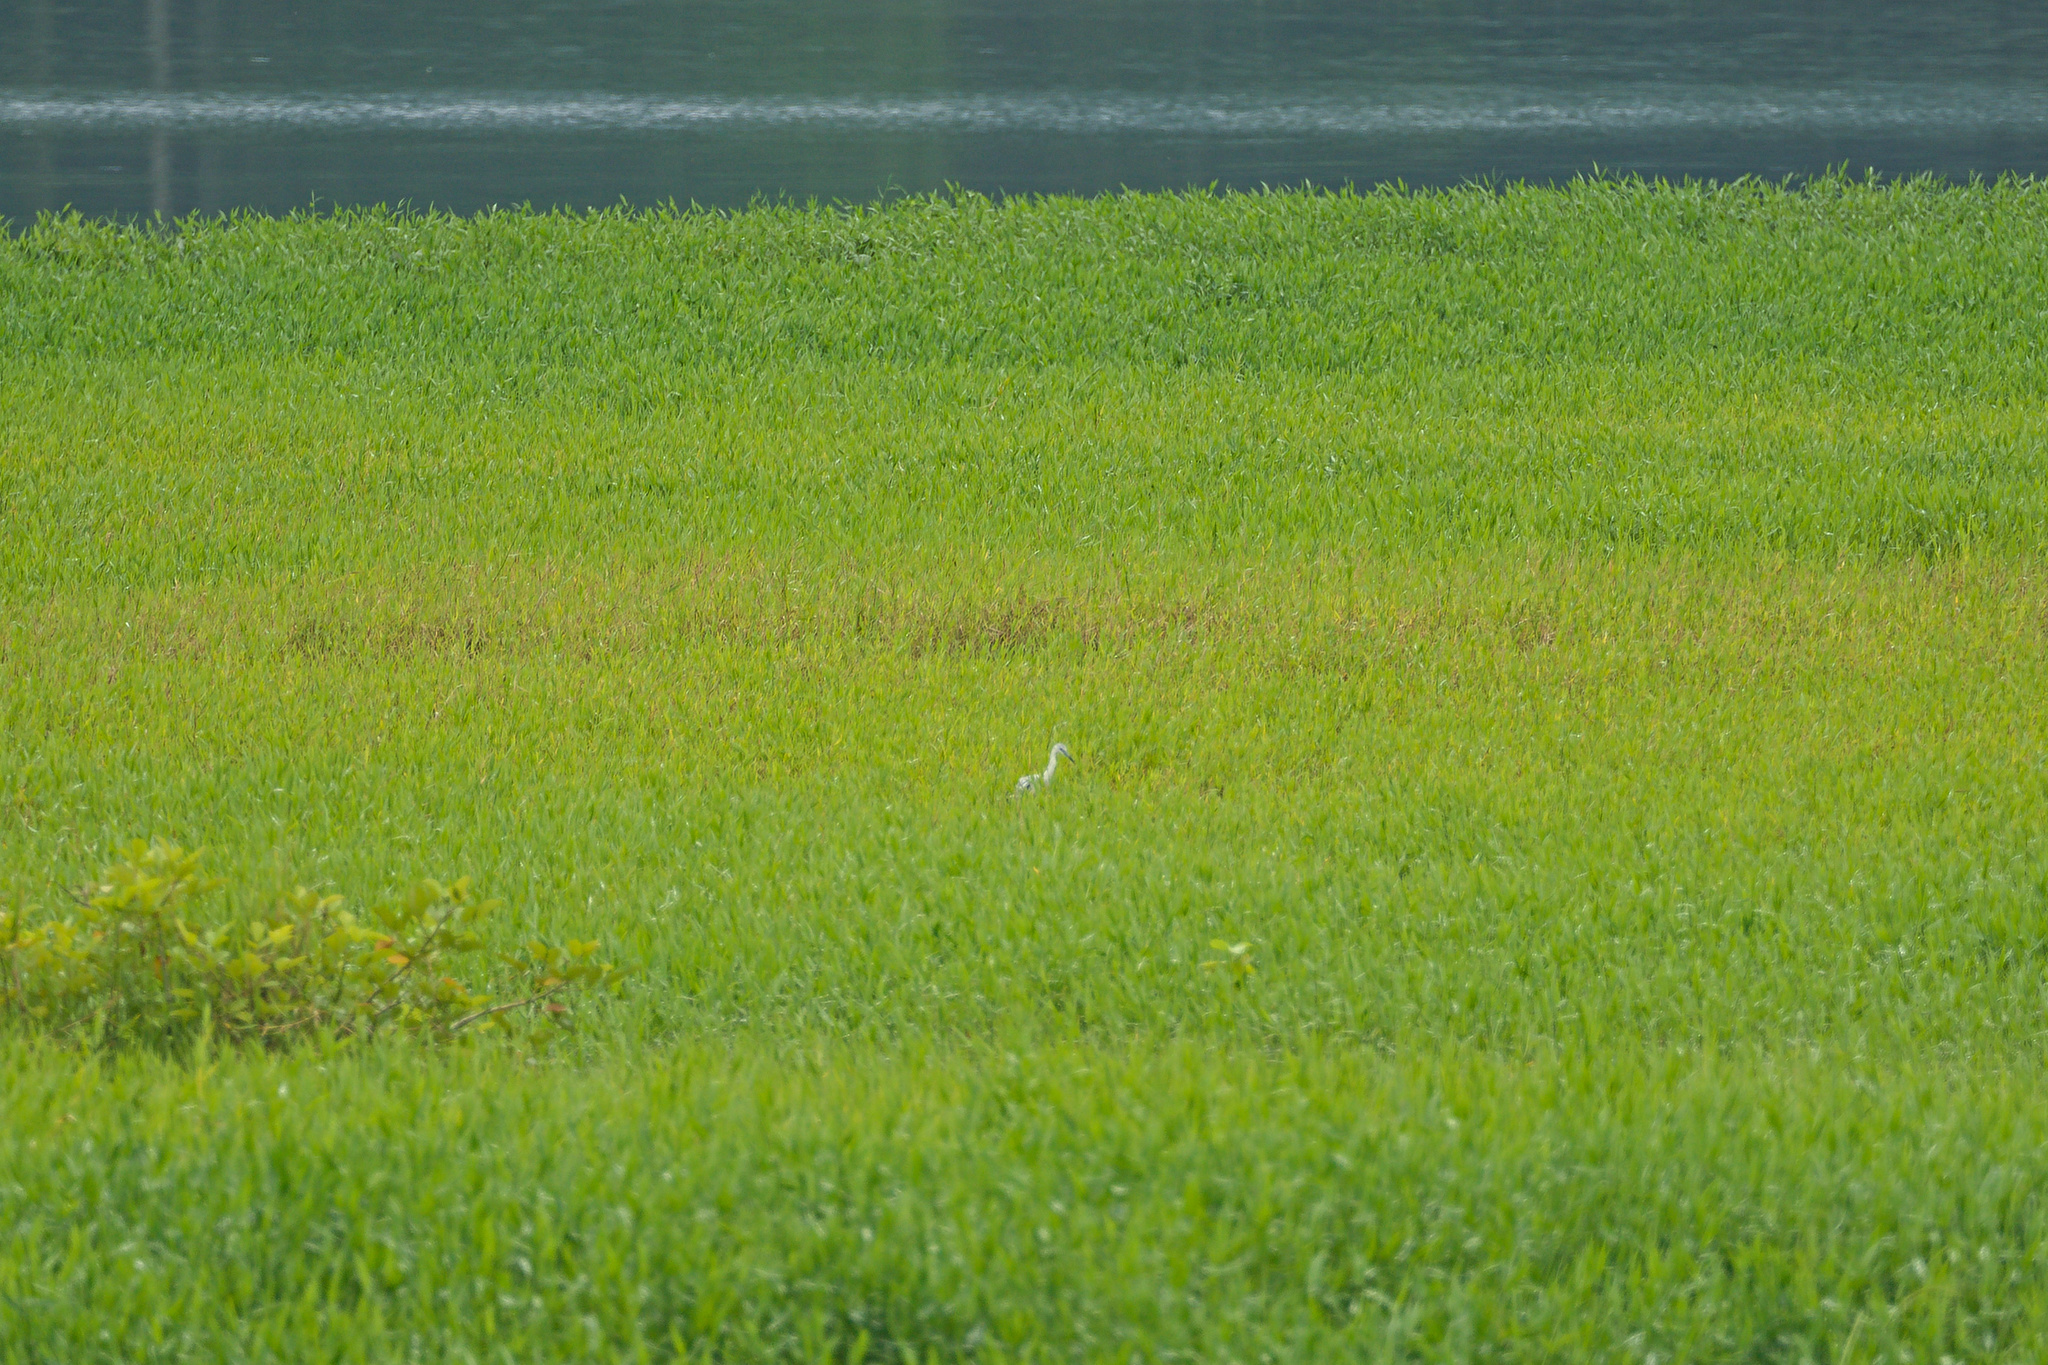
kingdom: Animalia
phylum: Chordata
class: Aves
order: Pelecaniformes
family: Ardeidae
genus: Egretta
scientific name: Egretta caerulea
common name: Little blue heron
